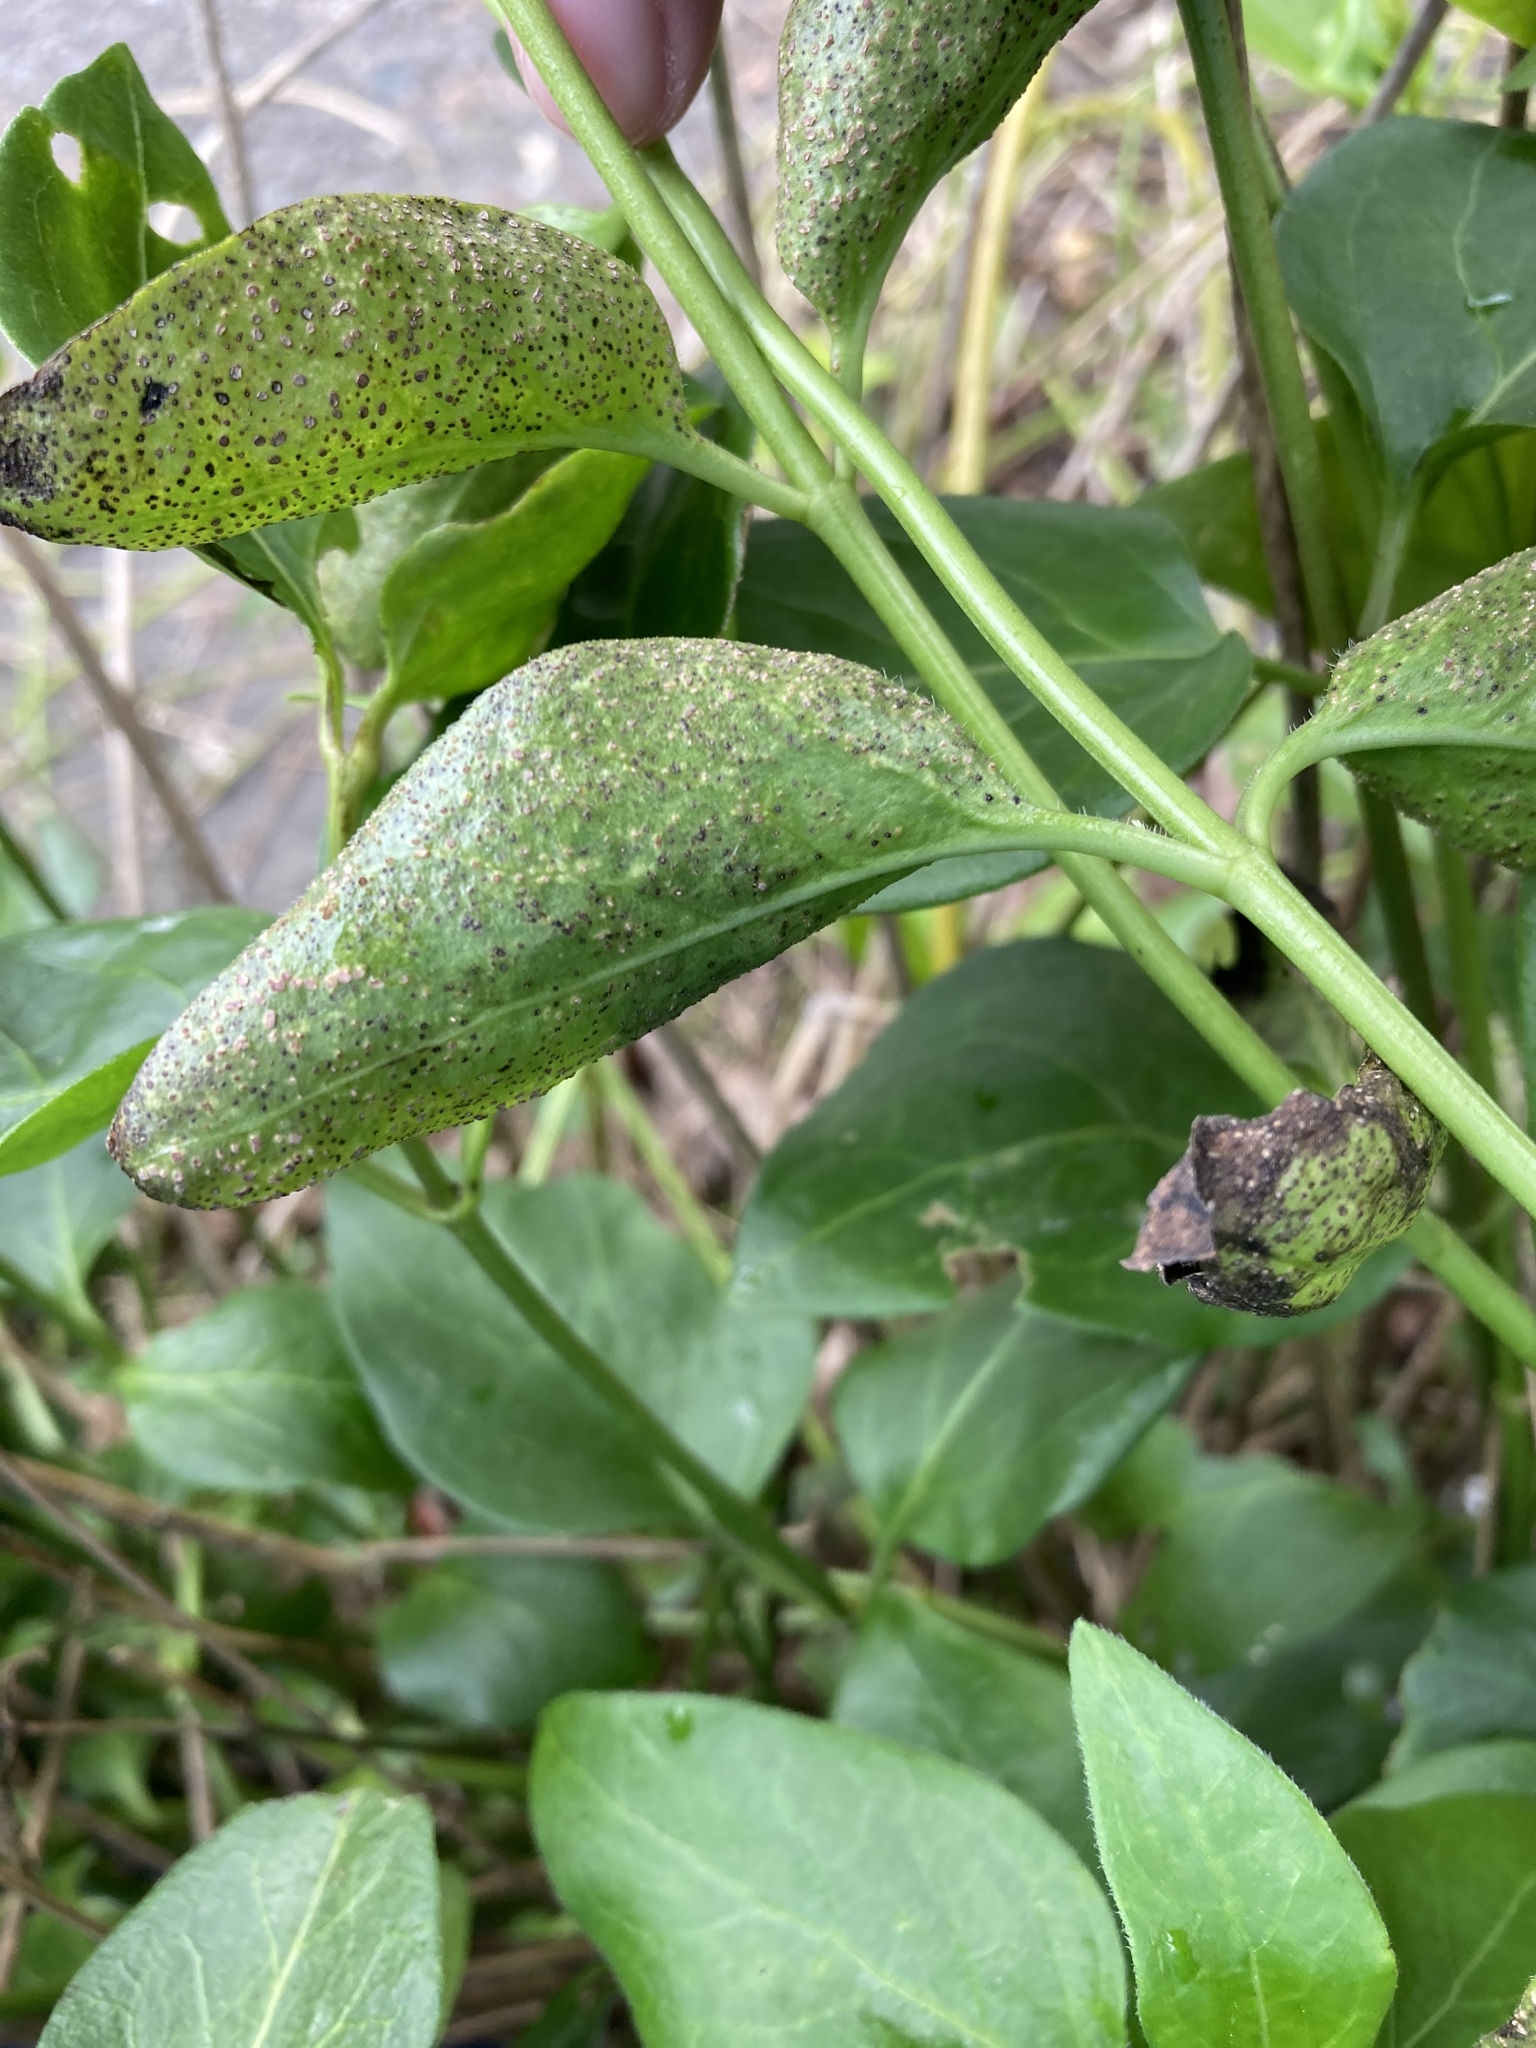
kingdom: Fungi
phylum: Basidiomycota
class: Pucciniomycetes
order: Pucciniales
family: Pucciniaceae
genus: Puccinia
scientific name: Puccinia vincae
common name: Periwinkle rust
